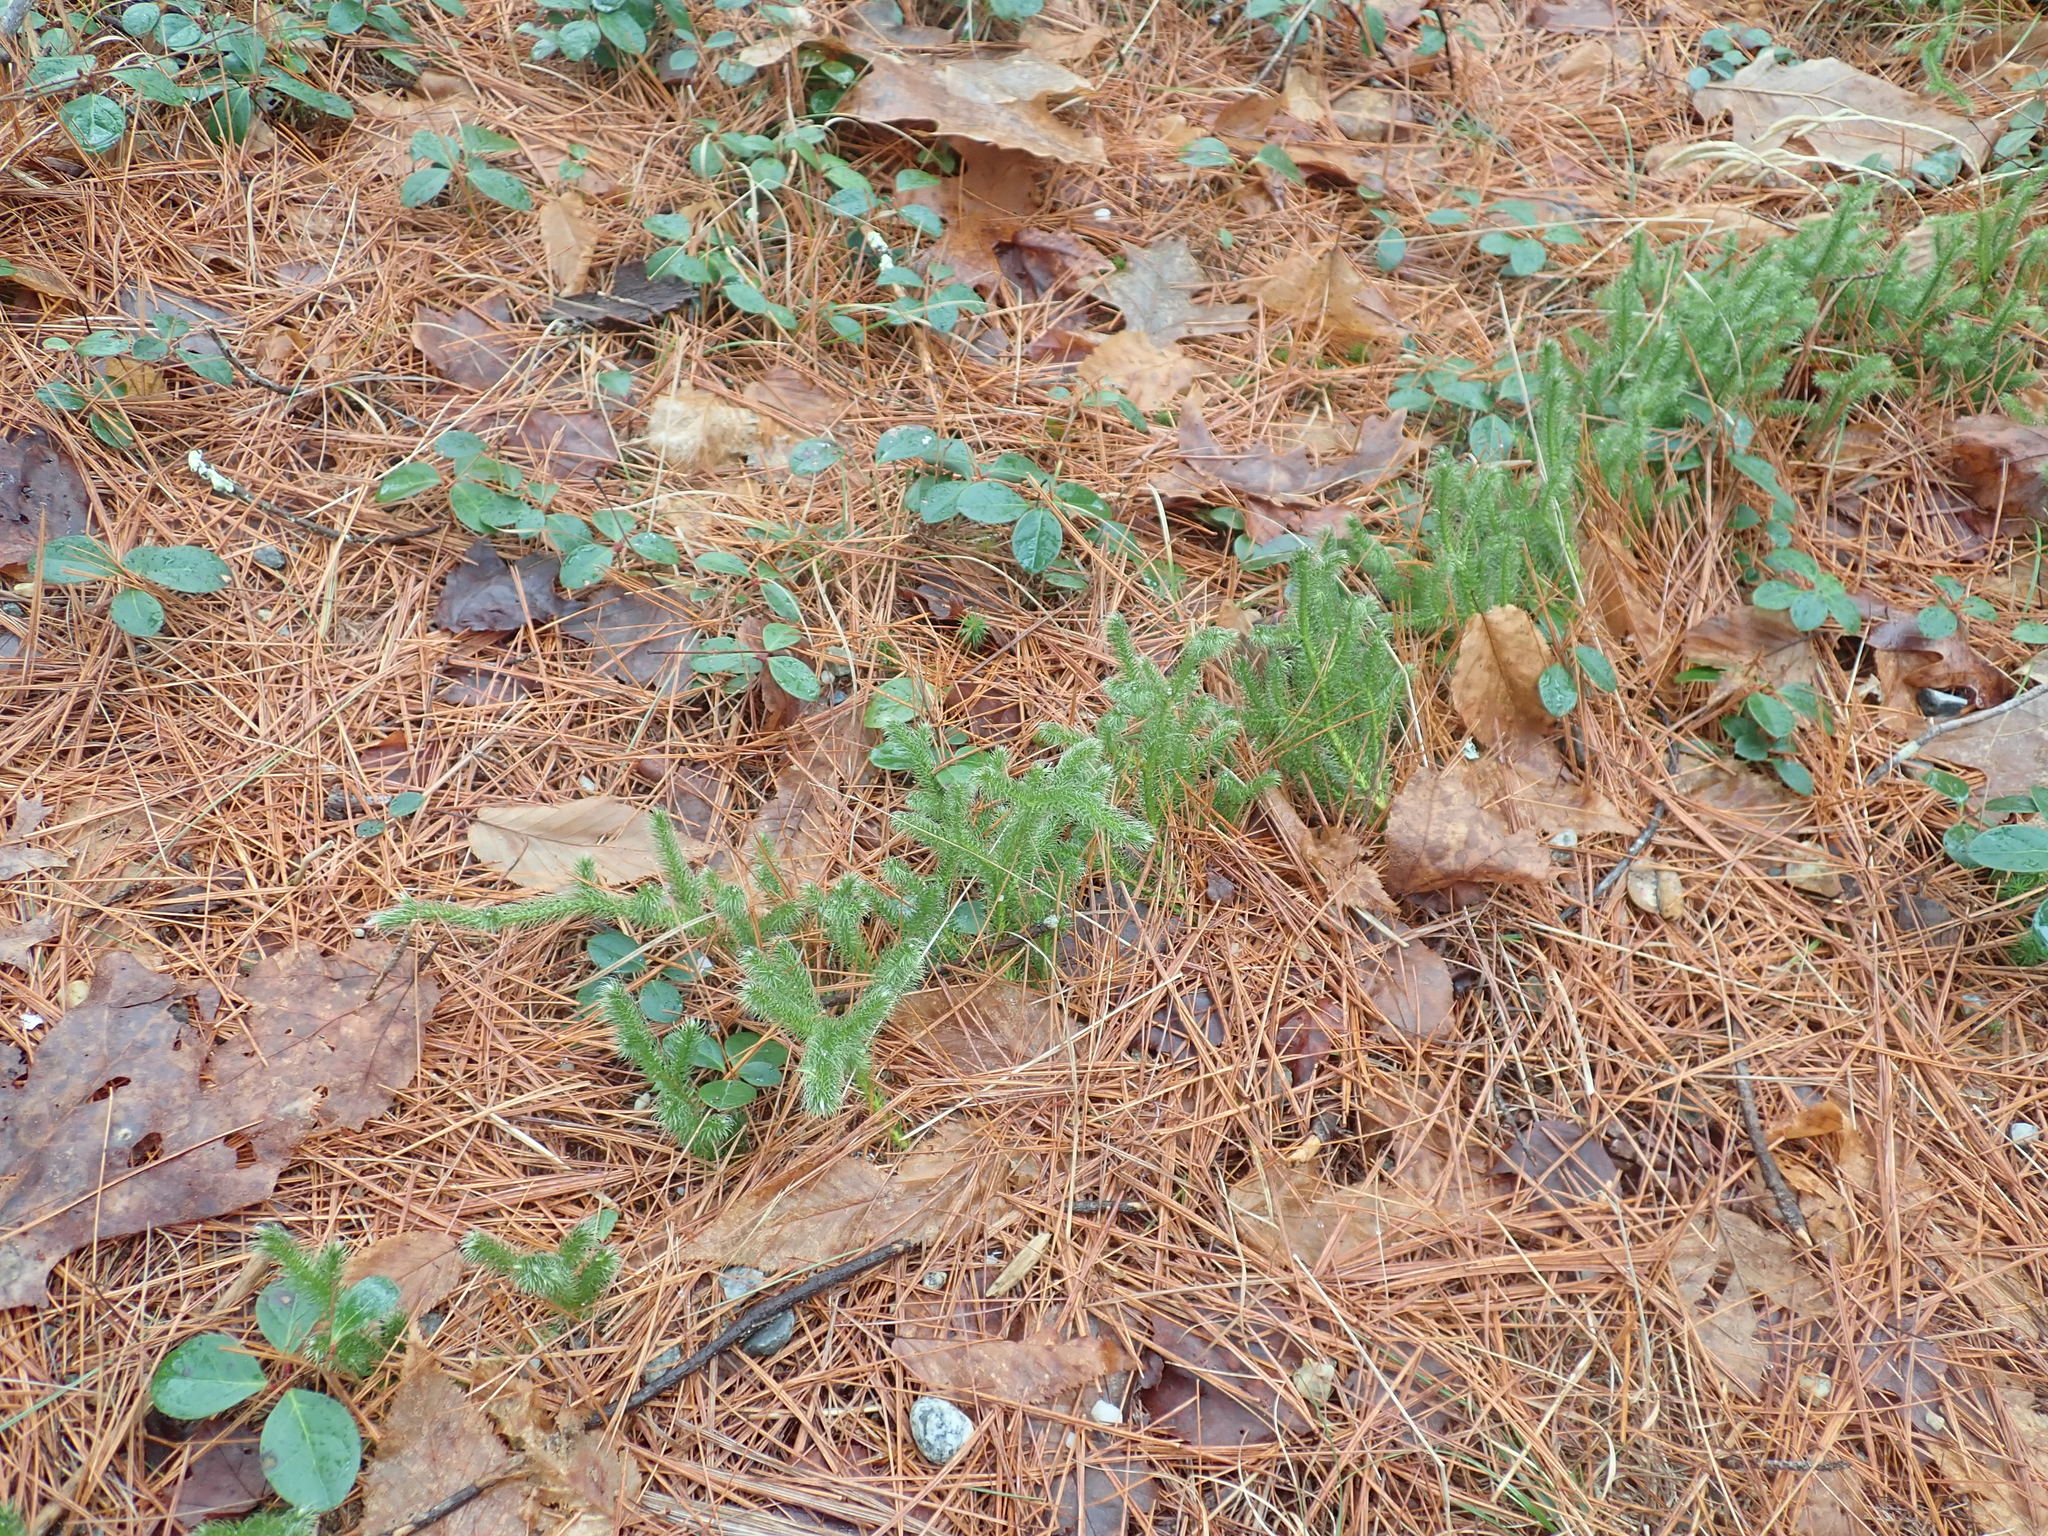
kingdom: Plantae
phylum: Tracheophyta
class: Lycopodiopsida
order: Lycopodiales
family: Lycopodiaceae
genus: Lycopodium
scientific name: Lycopodium clavatum
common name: Stag's-horn clubmoss
